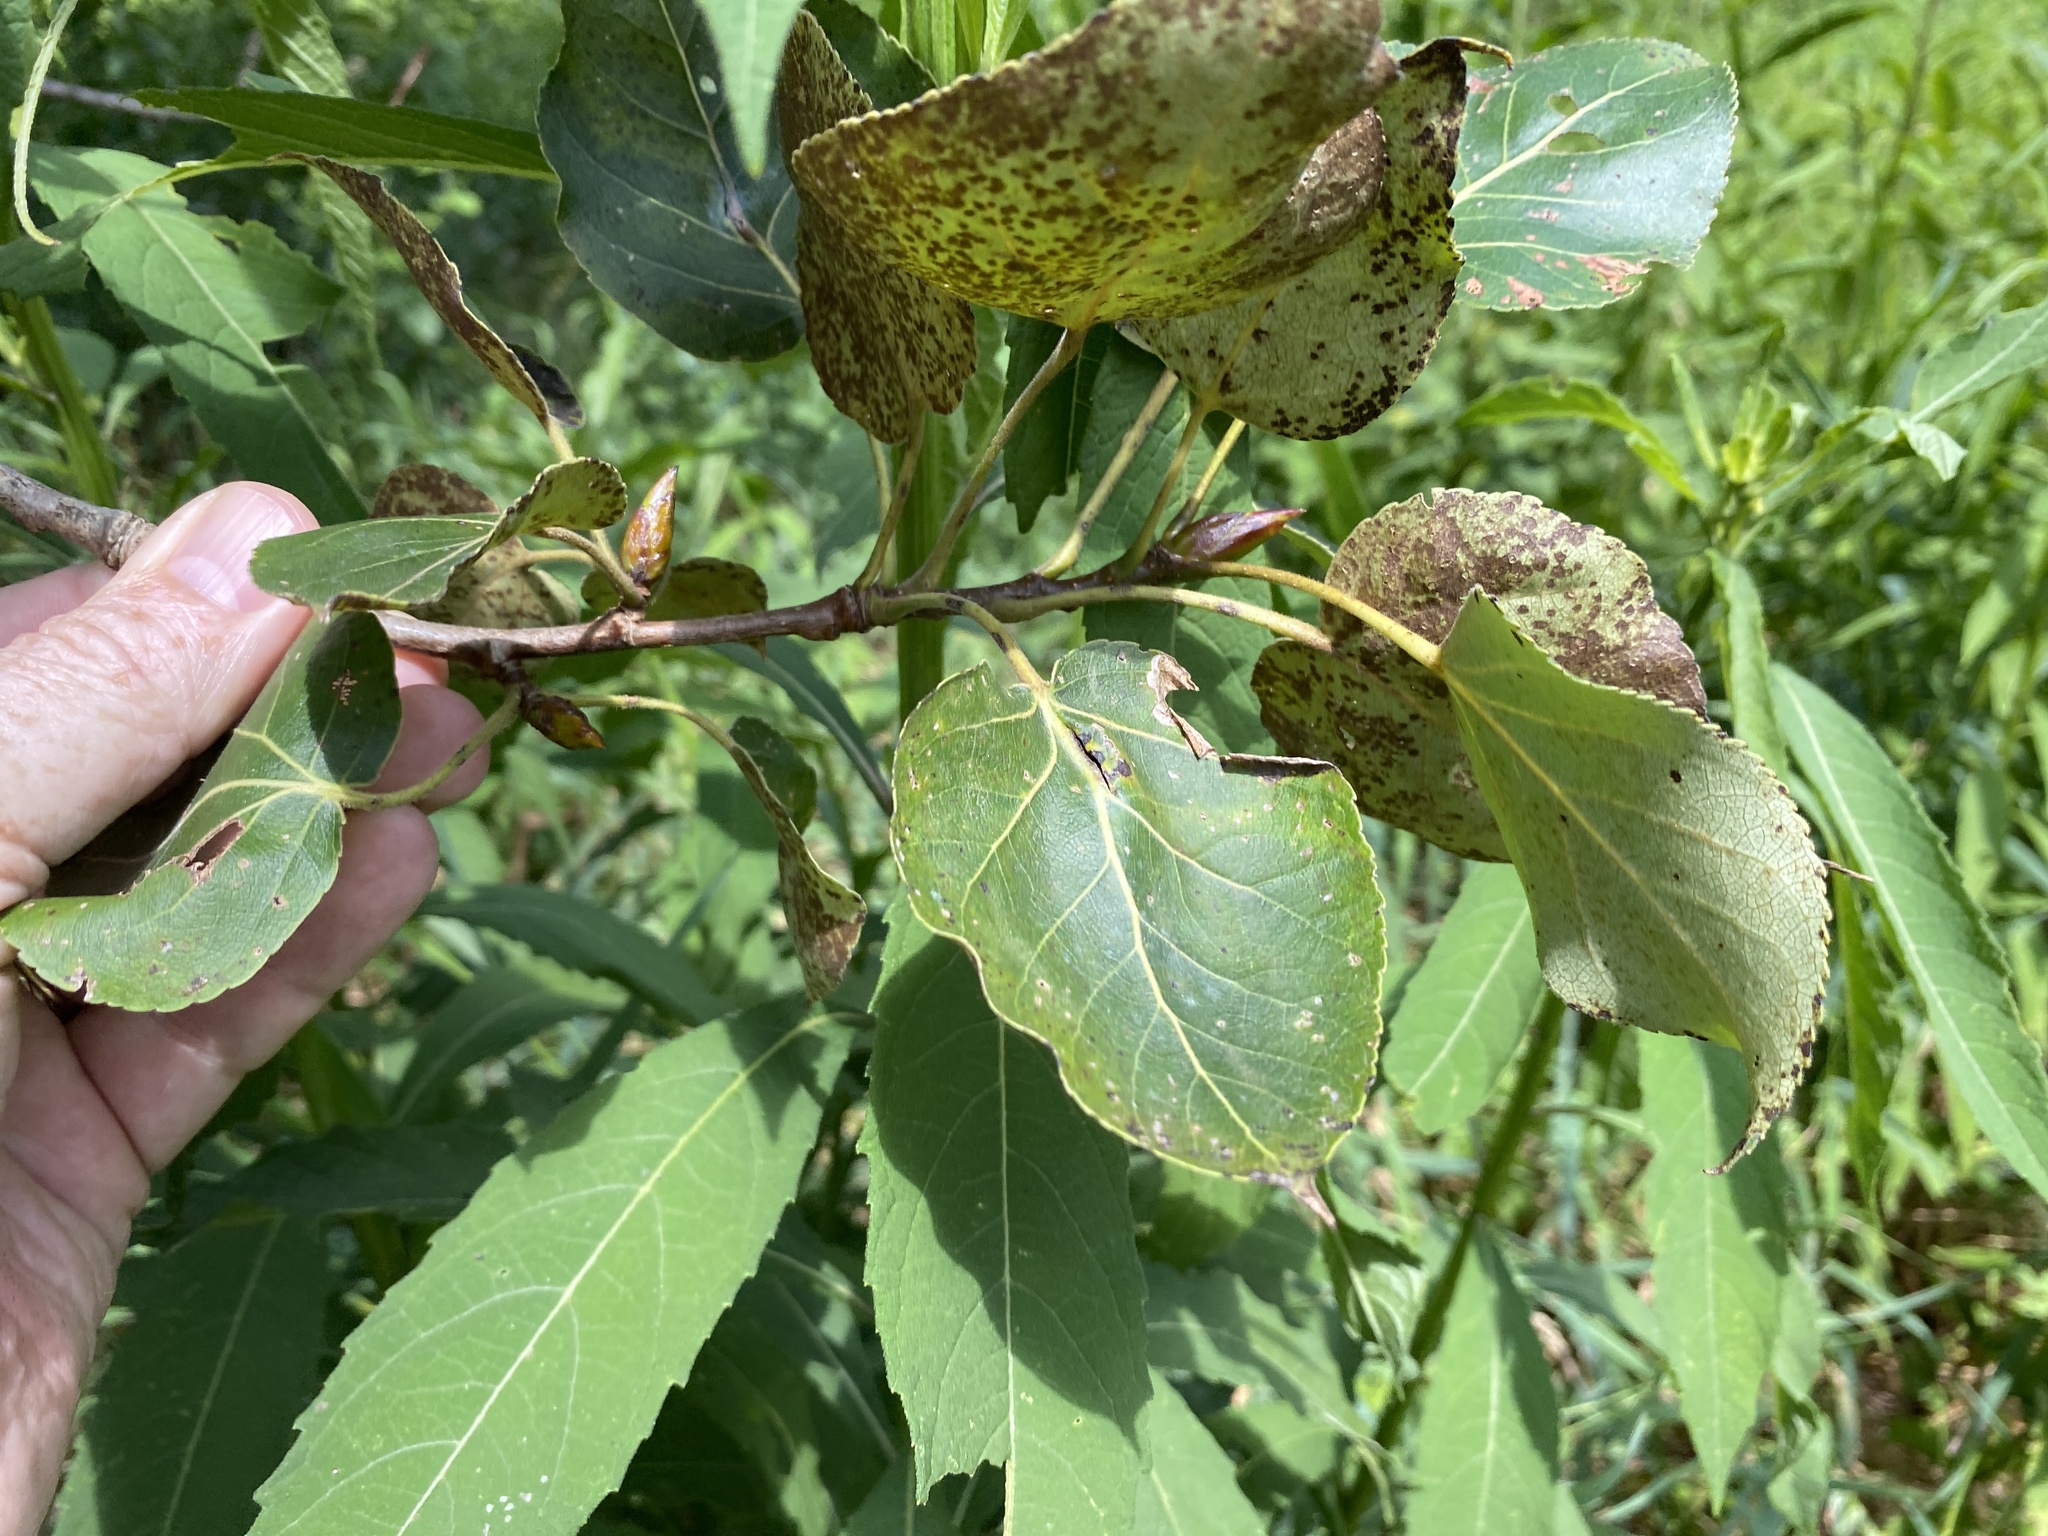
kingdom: Plantae
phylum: Tracheophyta
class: Magnoliopsida
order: Malpighiales
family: Salicaceae
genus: Populus
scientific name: Populus jackii
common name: Balm-of-gilead
